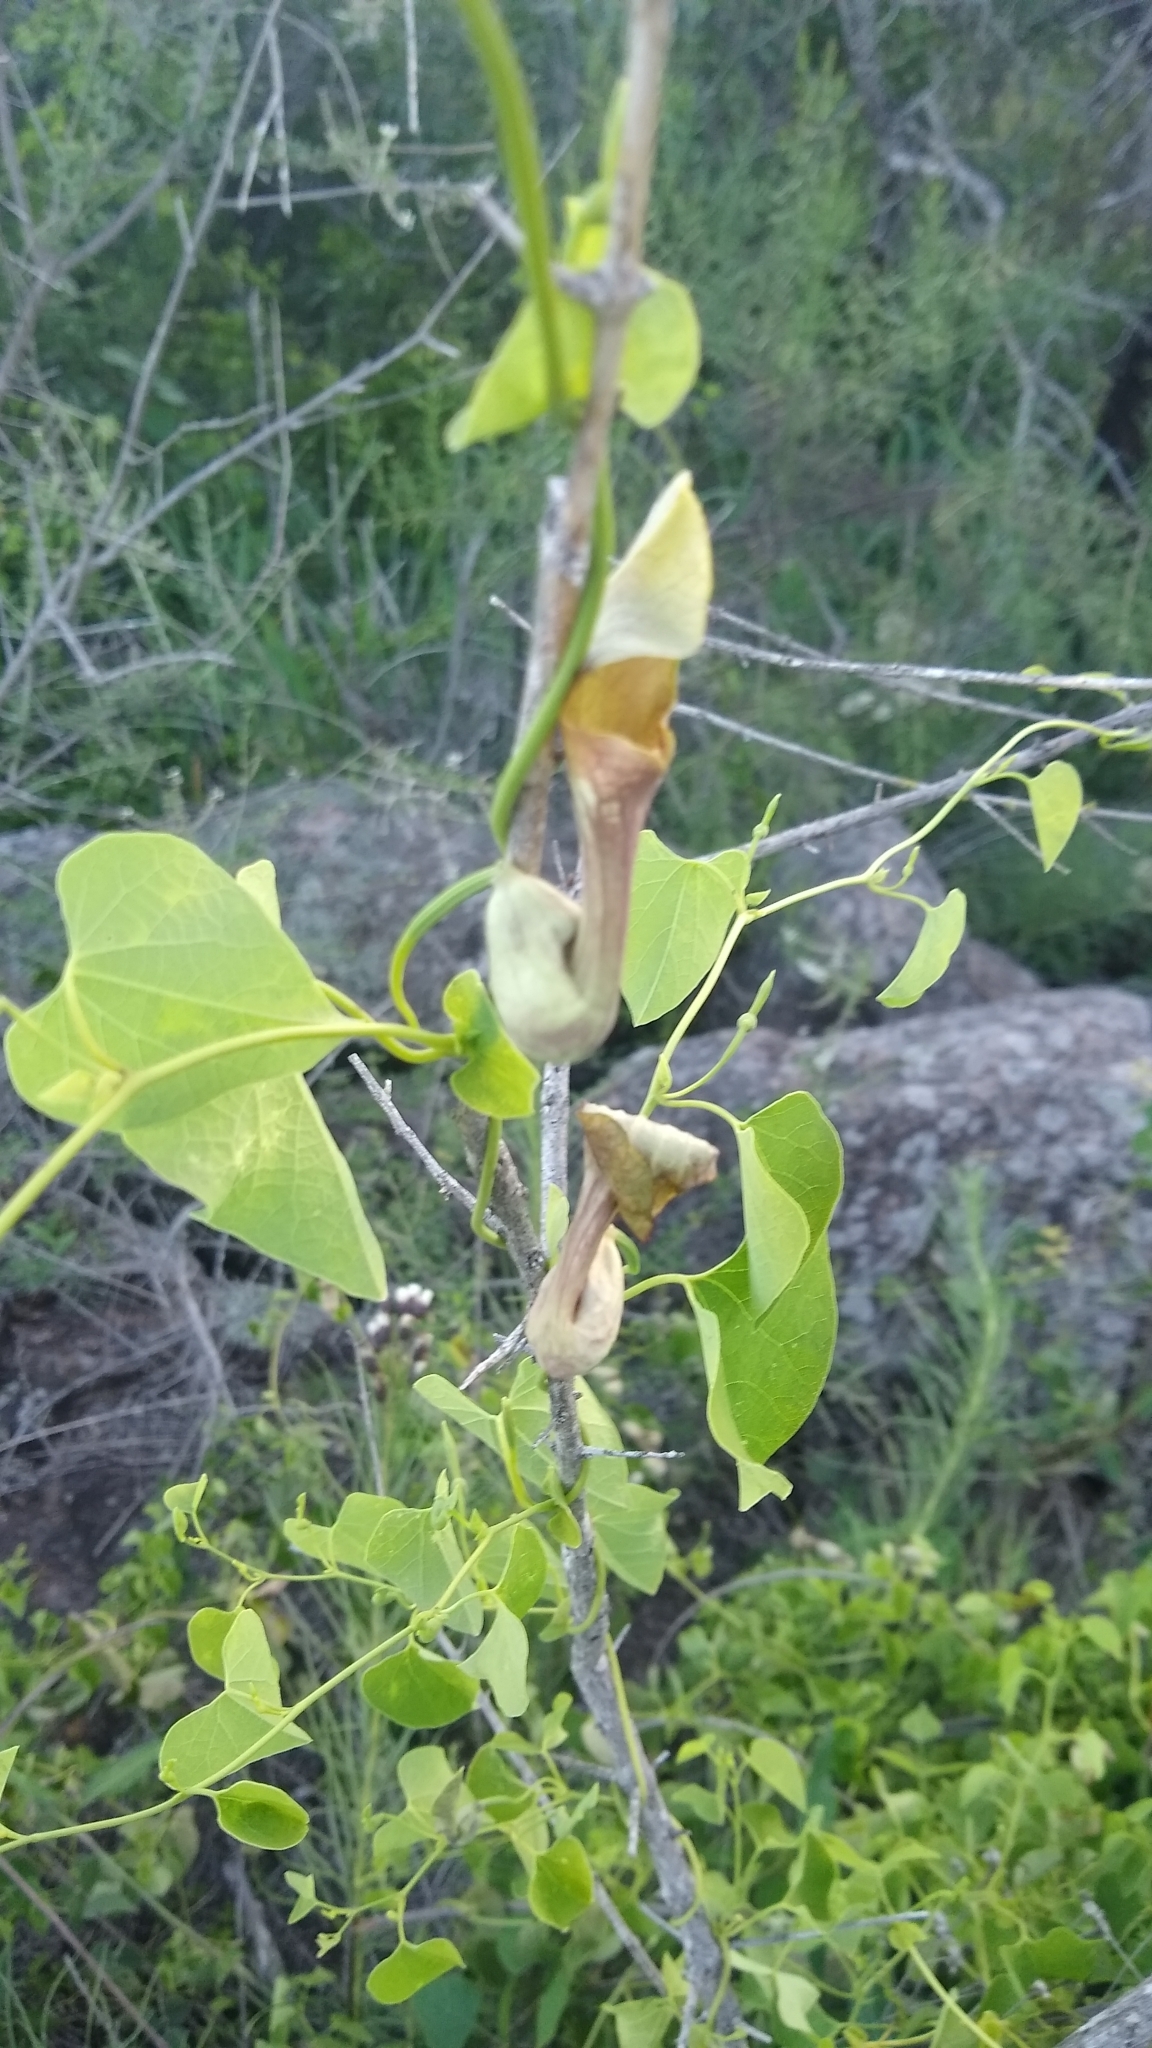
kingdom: Plantae
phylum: Tracheophyta
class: Magnoliopsida
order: Piperales
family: Aristolochiaceae
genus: Aristolochia
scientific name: Aristolochia argentina
